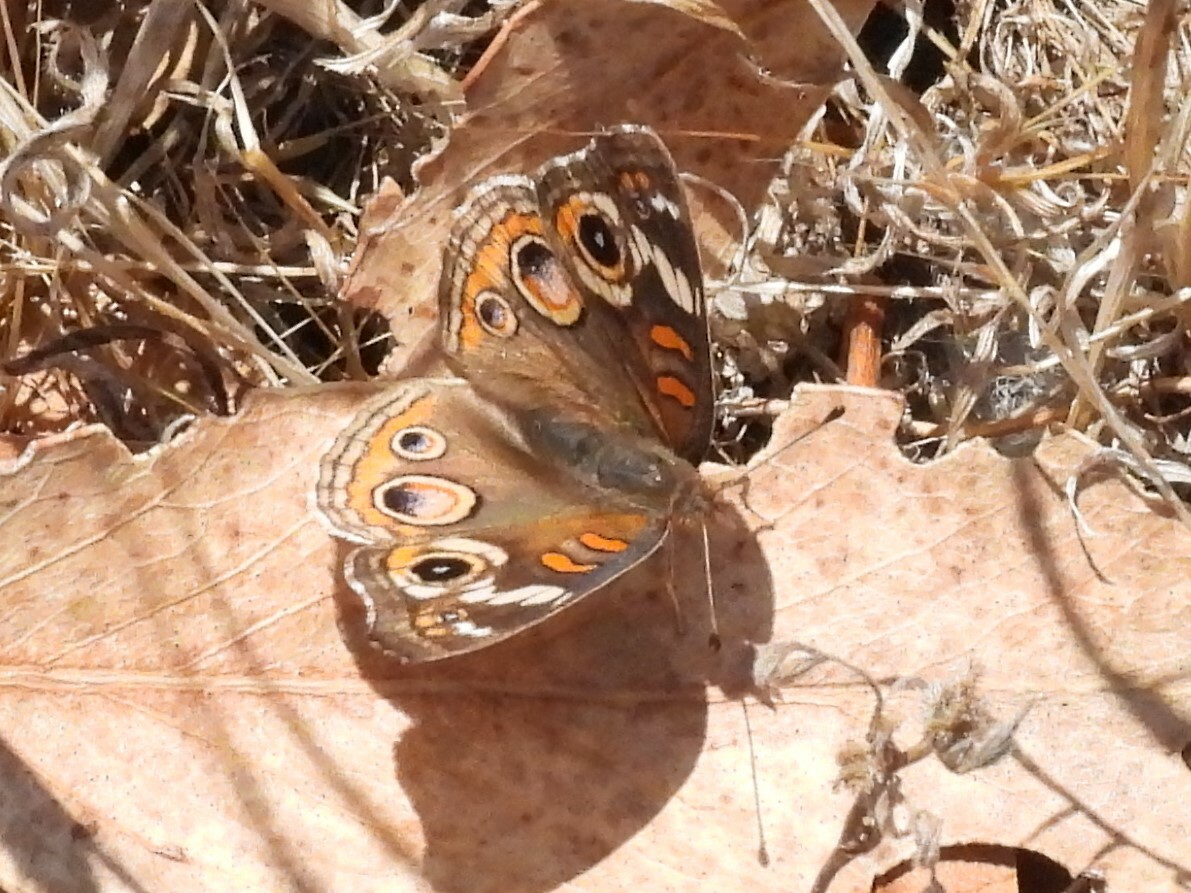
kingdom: Animalia
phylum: Arthropoda
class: Insecta
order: Lepidoptera
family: Nymphalidae
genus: Junonia
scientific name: Junonia grisea
